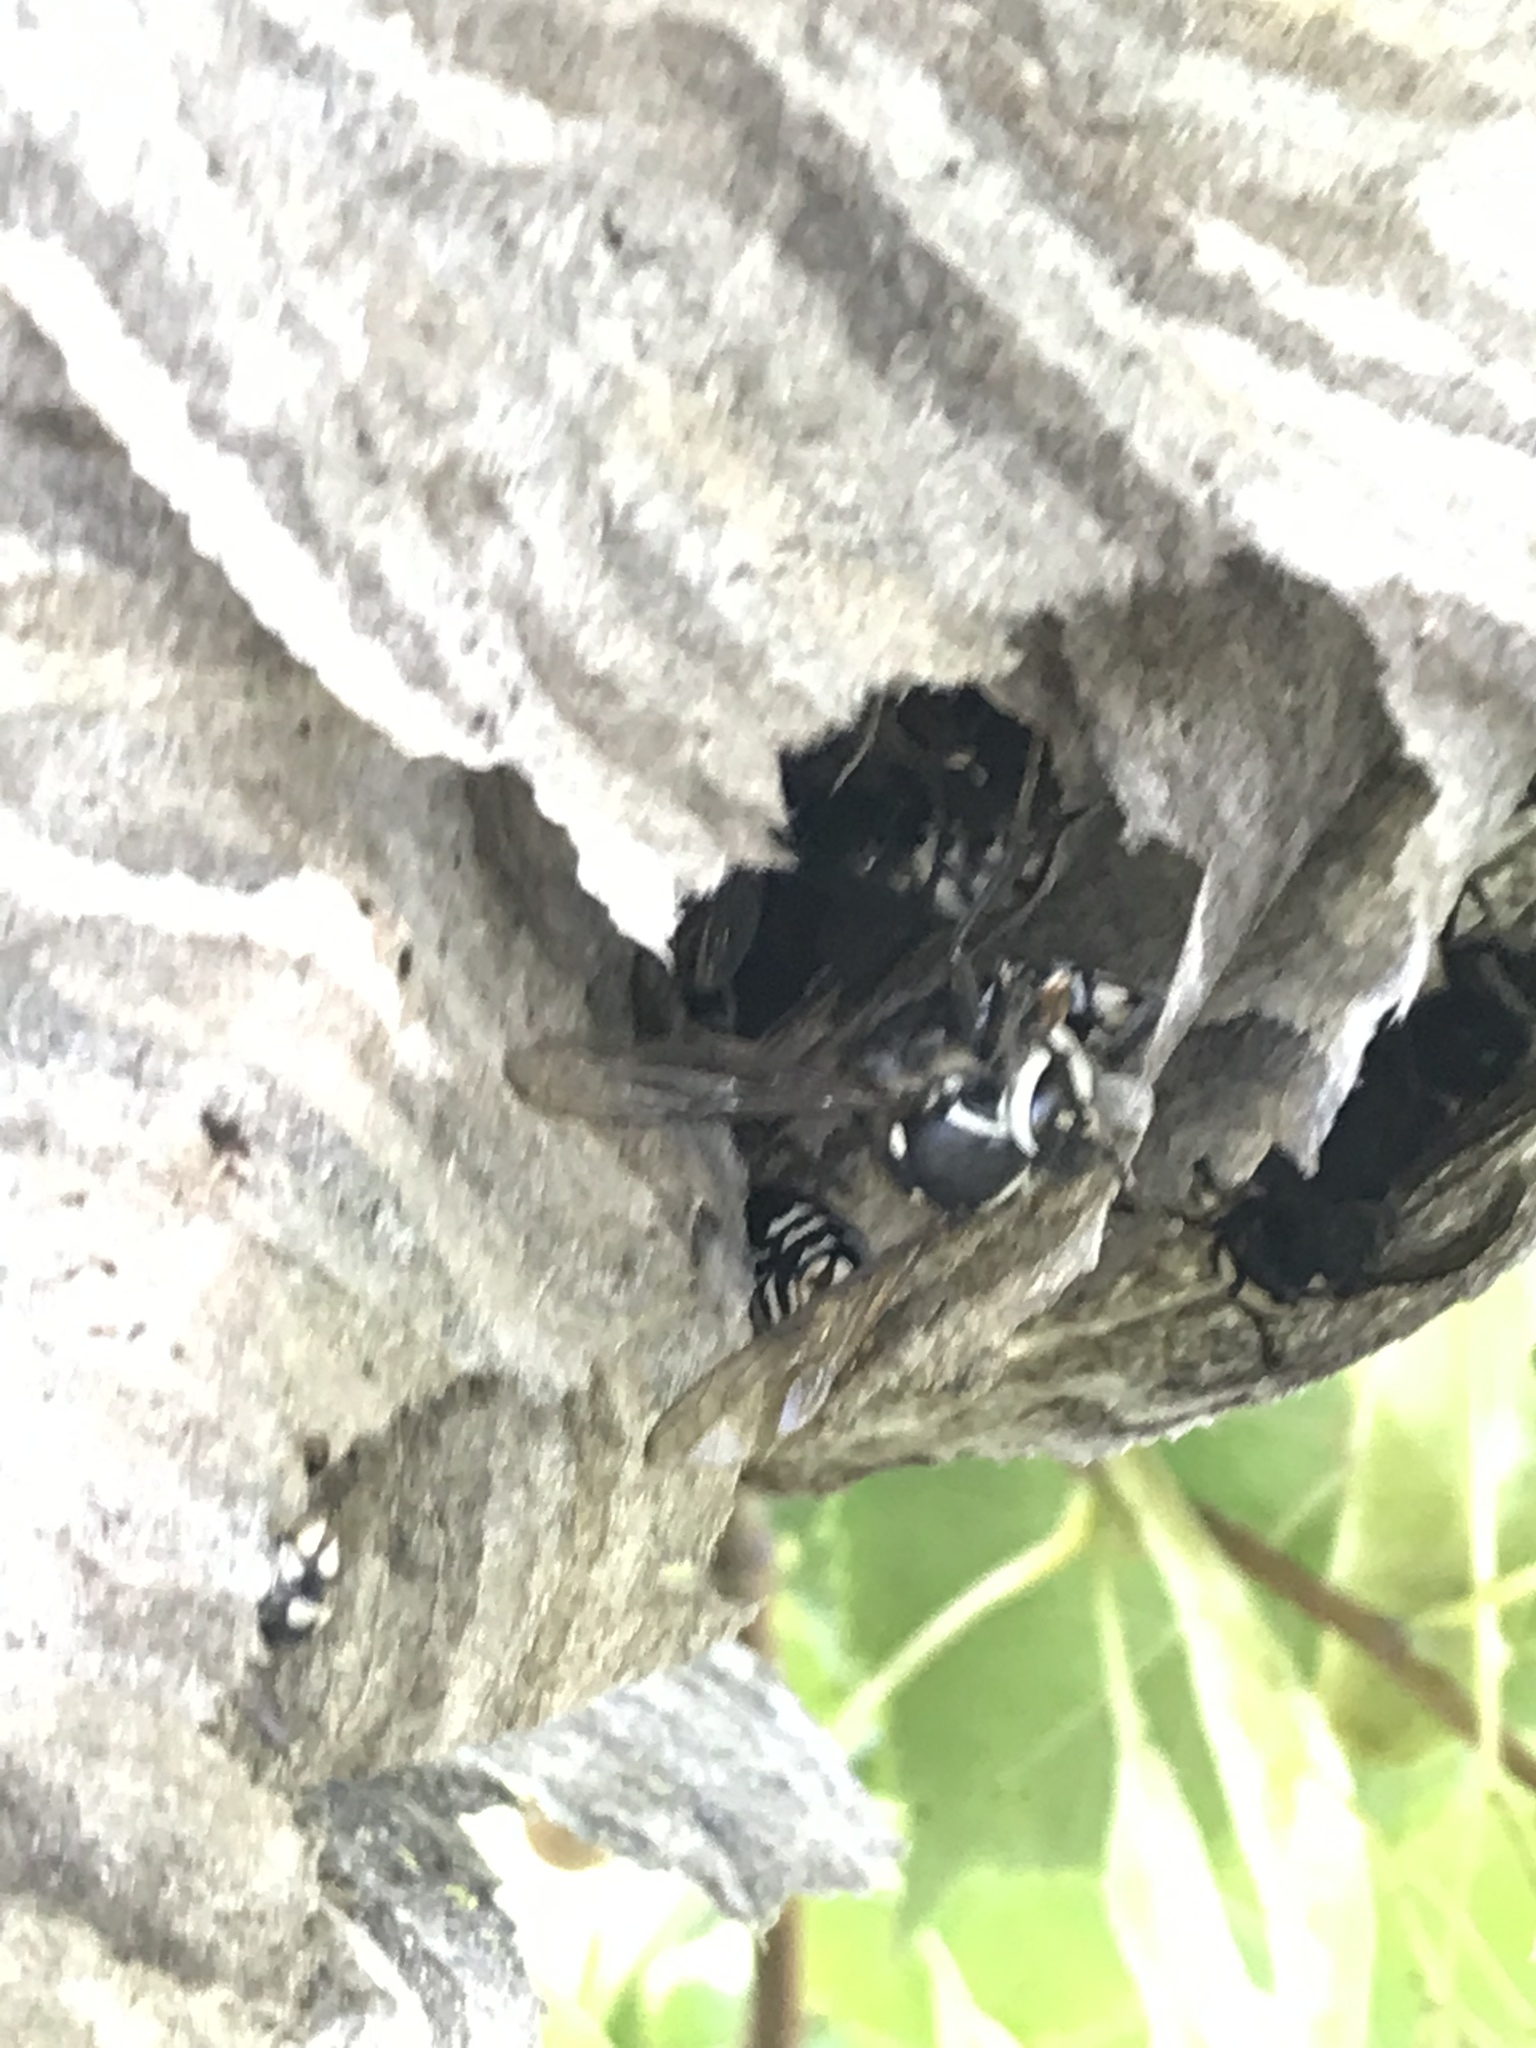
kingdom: Animalia
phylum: Arthropoda
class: Insecta
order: Hymenoptera
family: Vespidae
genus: Dolichovespula
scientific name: Dolichovespula maculata
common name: Bald-faced hornet
